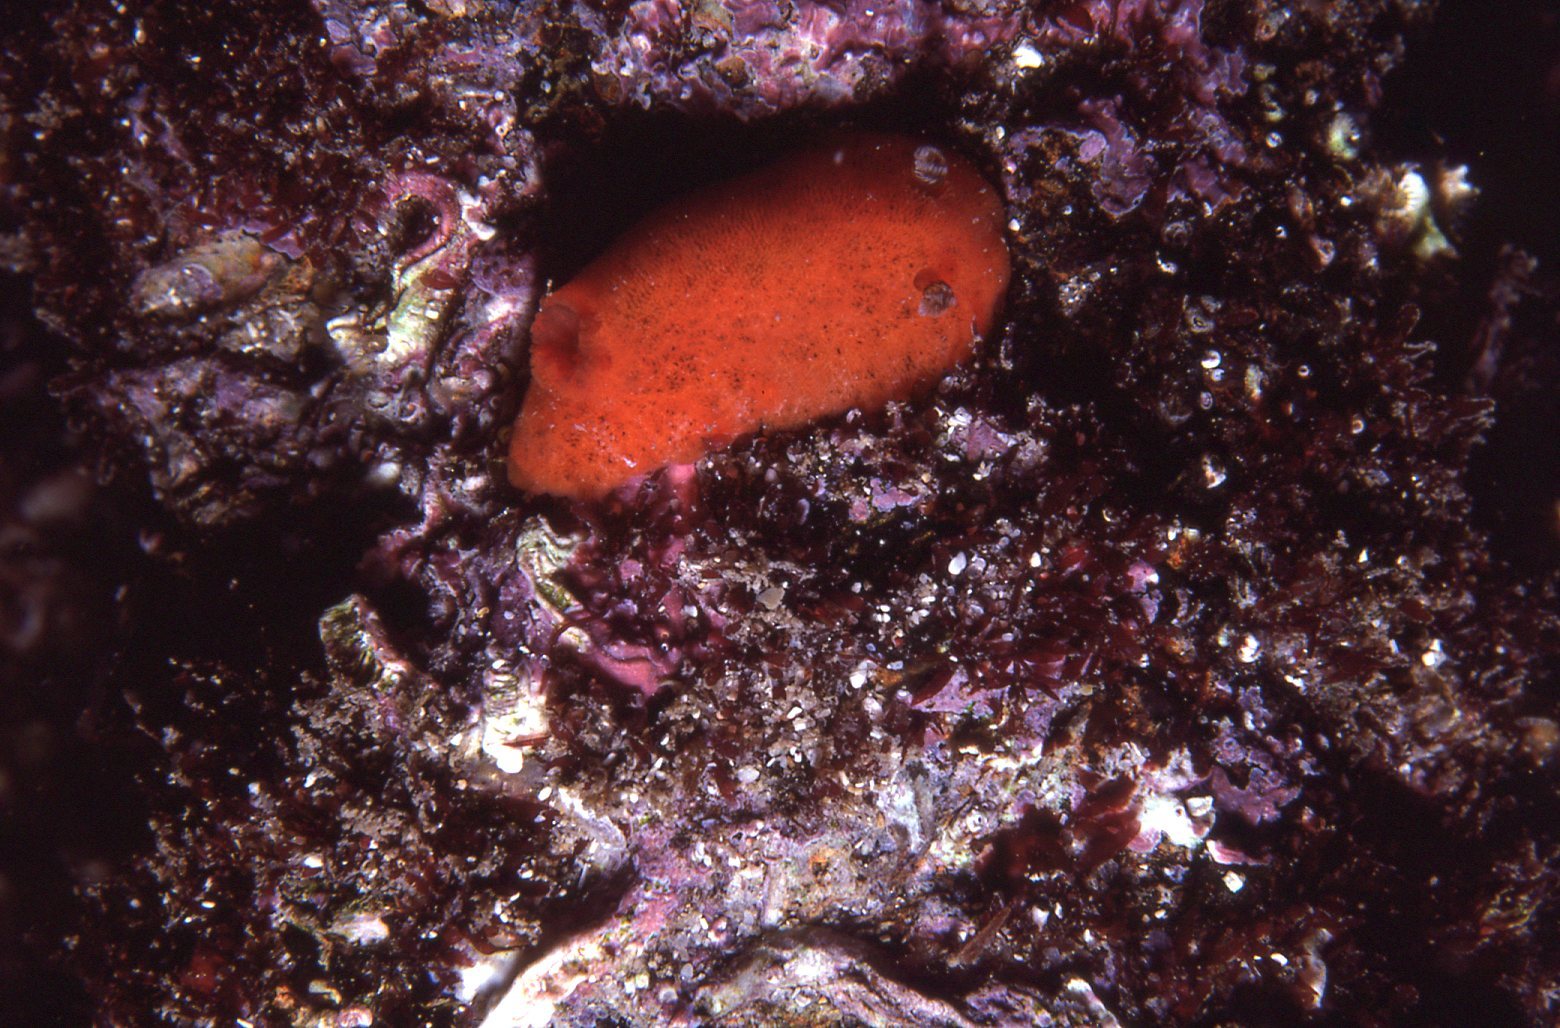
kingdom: Animalia
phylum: Mollusca
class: Gastropoda
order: Nudibranchia
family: Discodorididae
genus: Rostanga
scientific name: Rostanga arbutus
